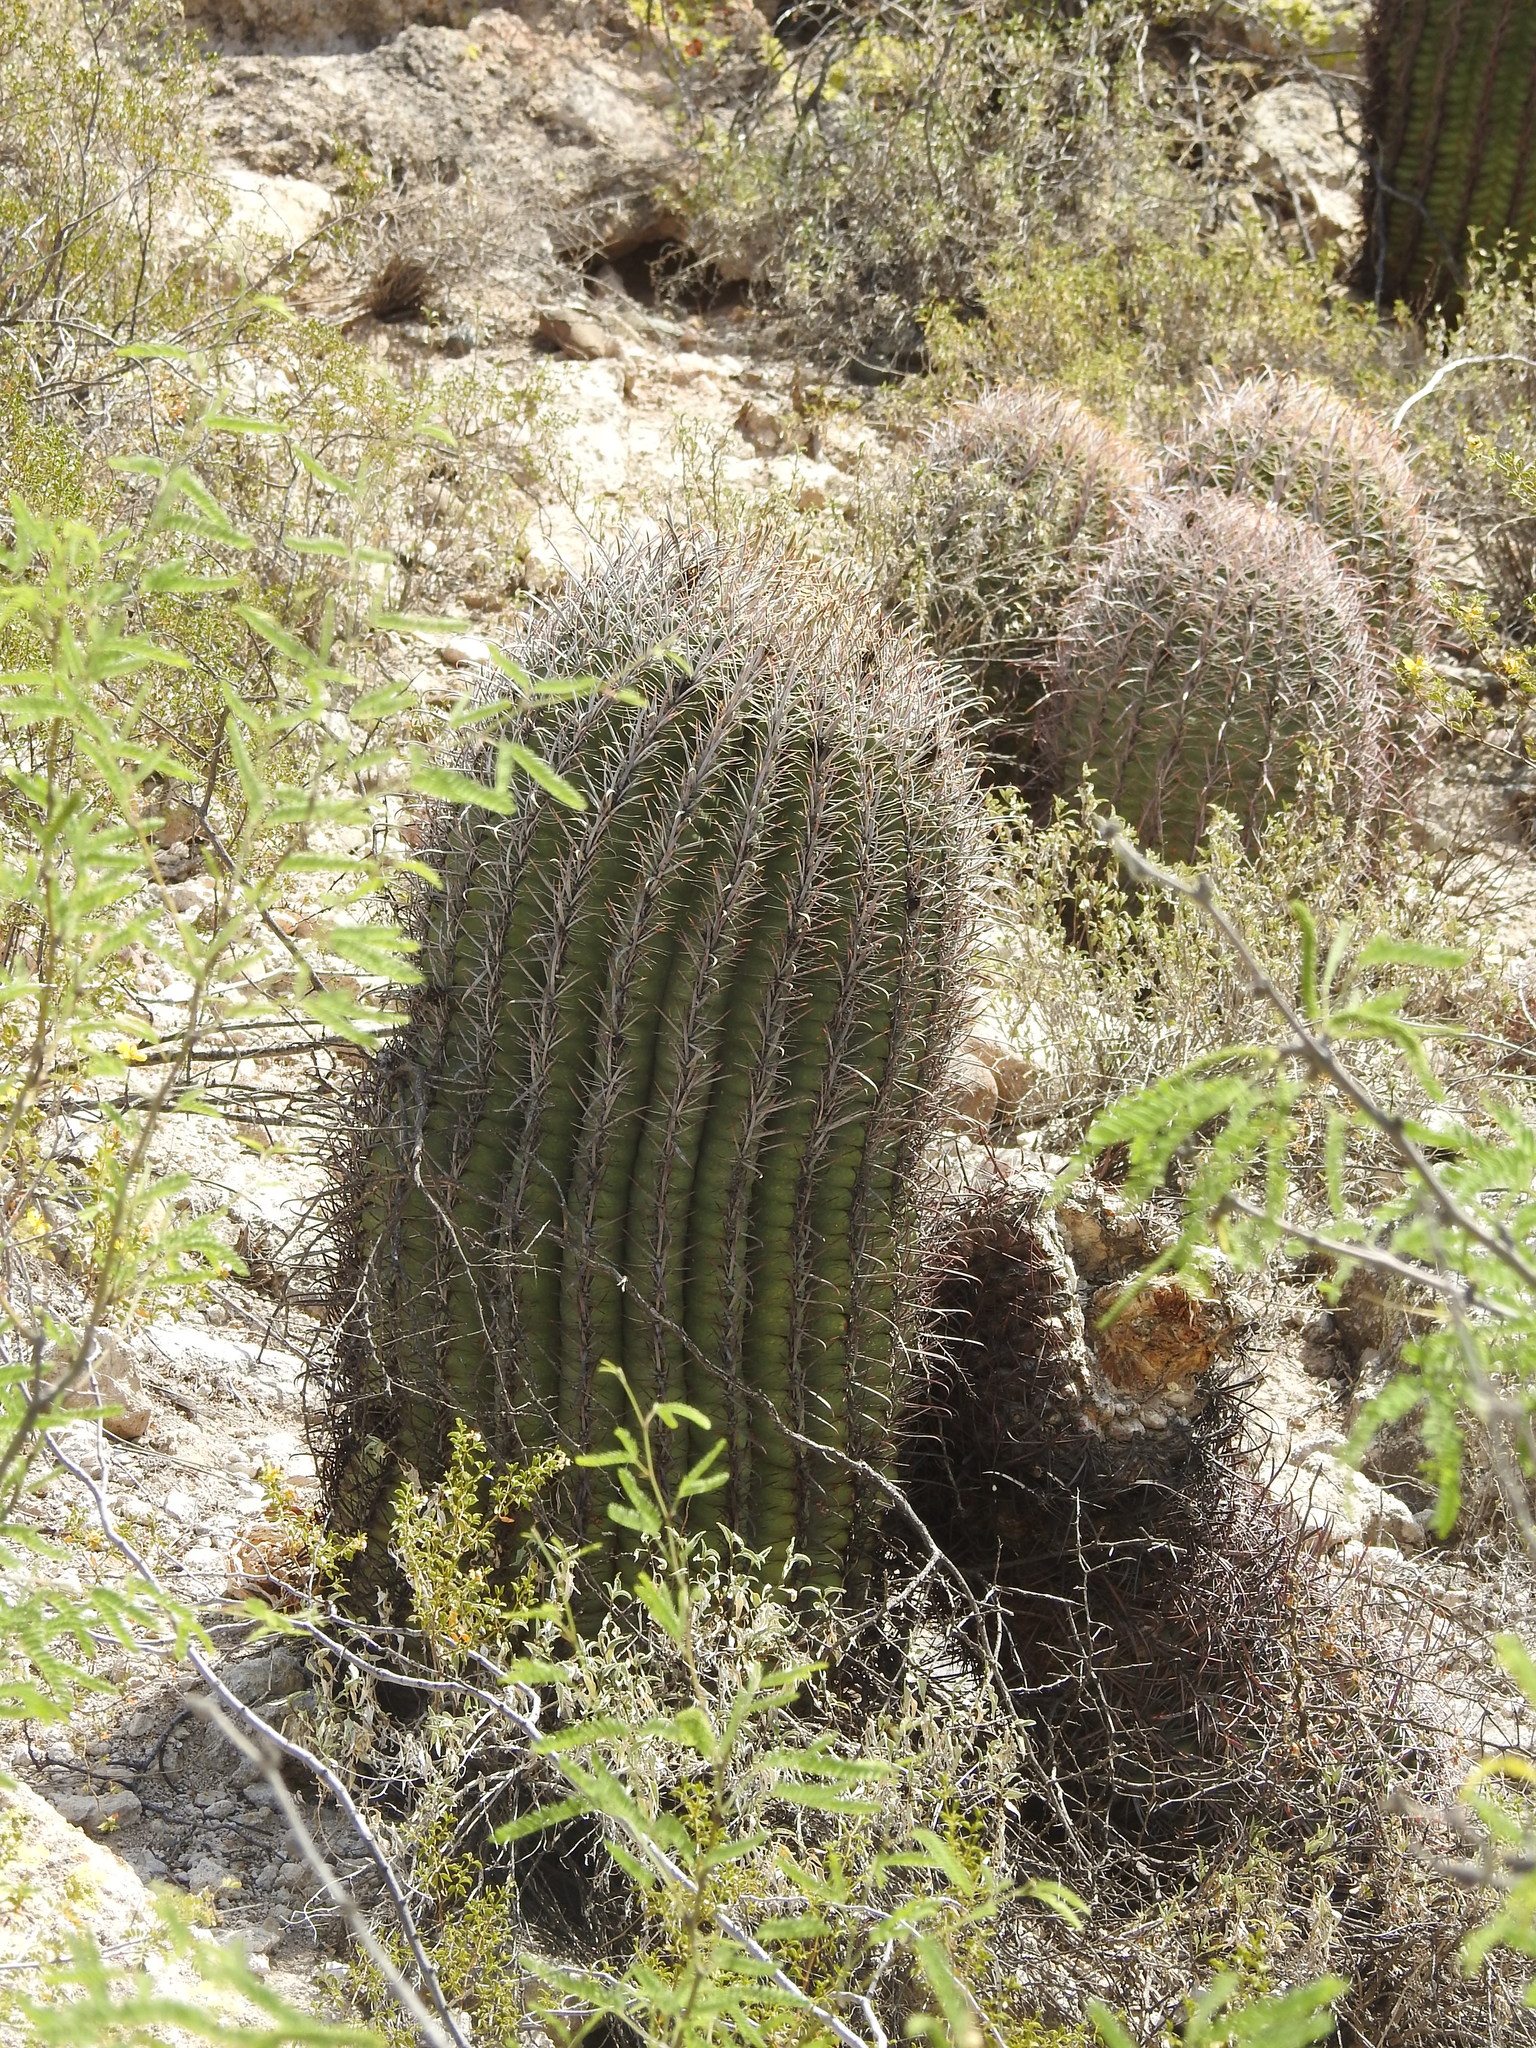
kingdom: Plantae
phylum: Tracheophyta
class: Magnoliopsida
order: Caryophyllales
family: Cactaceae
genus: Ferocactus
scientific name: Ferocactus wislizeni
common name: Candy barrel cactus
